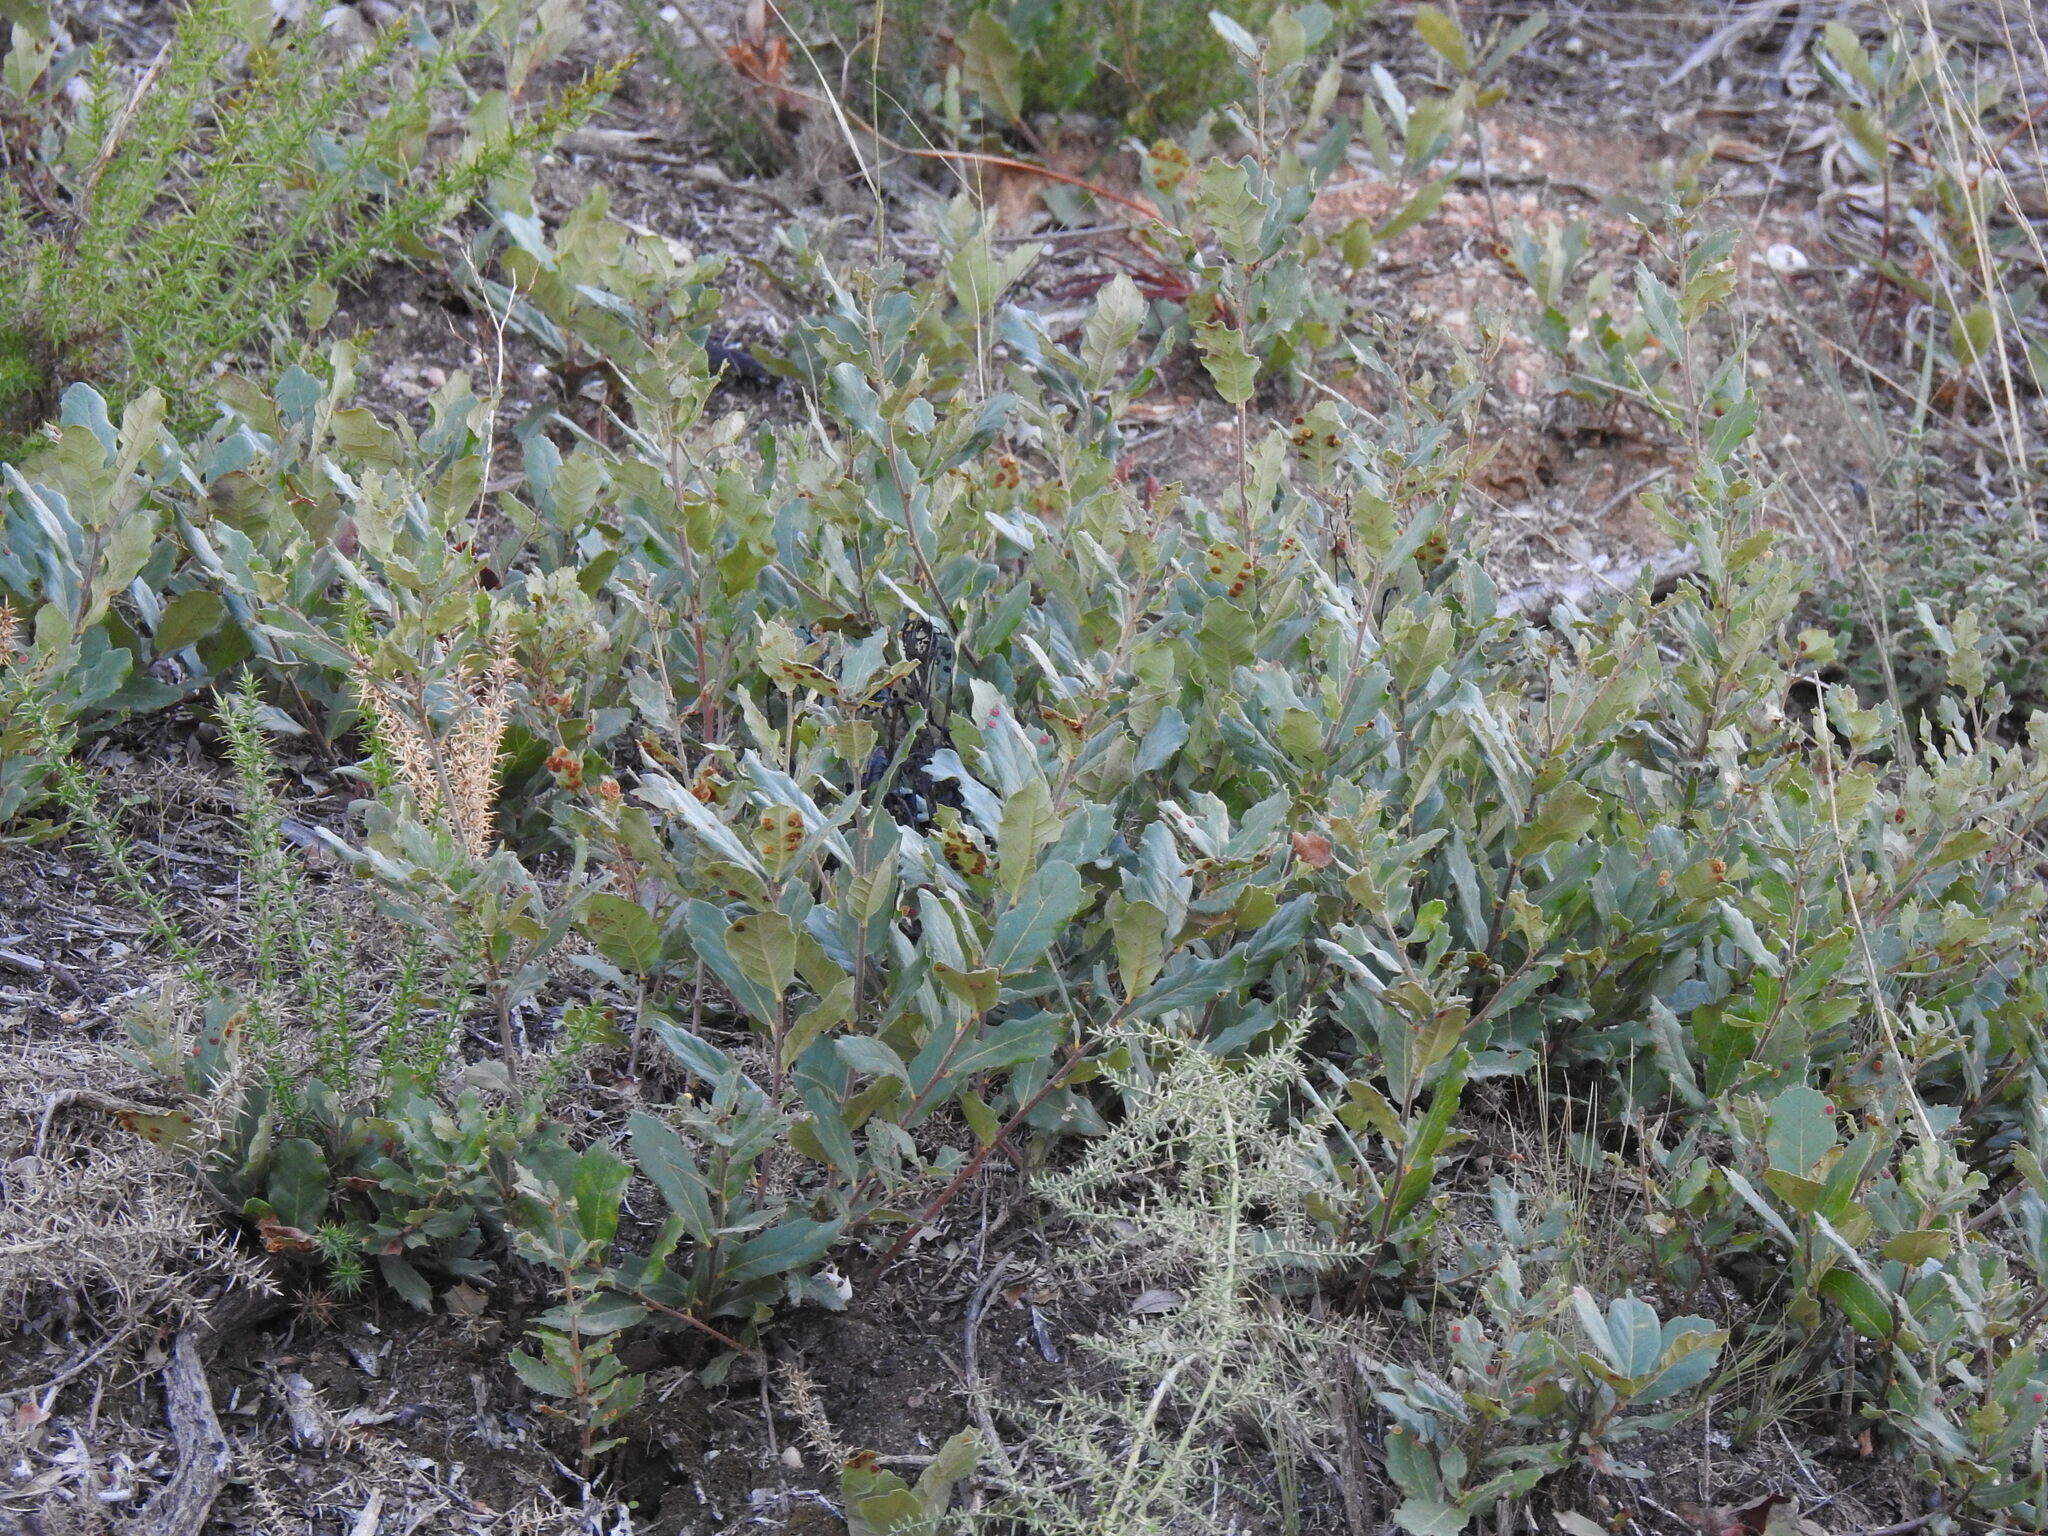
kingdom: Animalia
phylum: Arthropoda
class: Insecta
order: Hymenoptera
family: Cynipidae
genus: Neuroterus
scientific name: Neuroterus quercusbaccarum
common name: Common spangle gall
